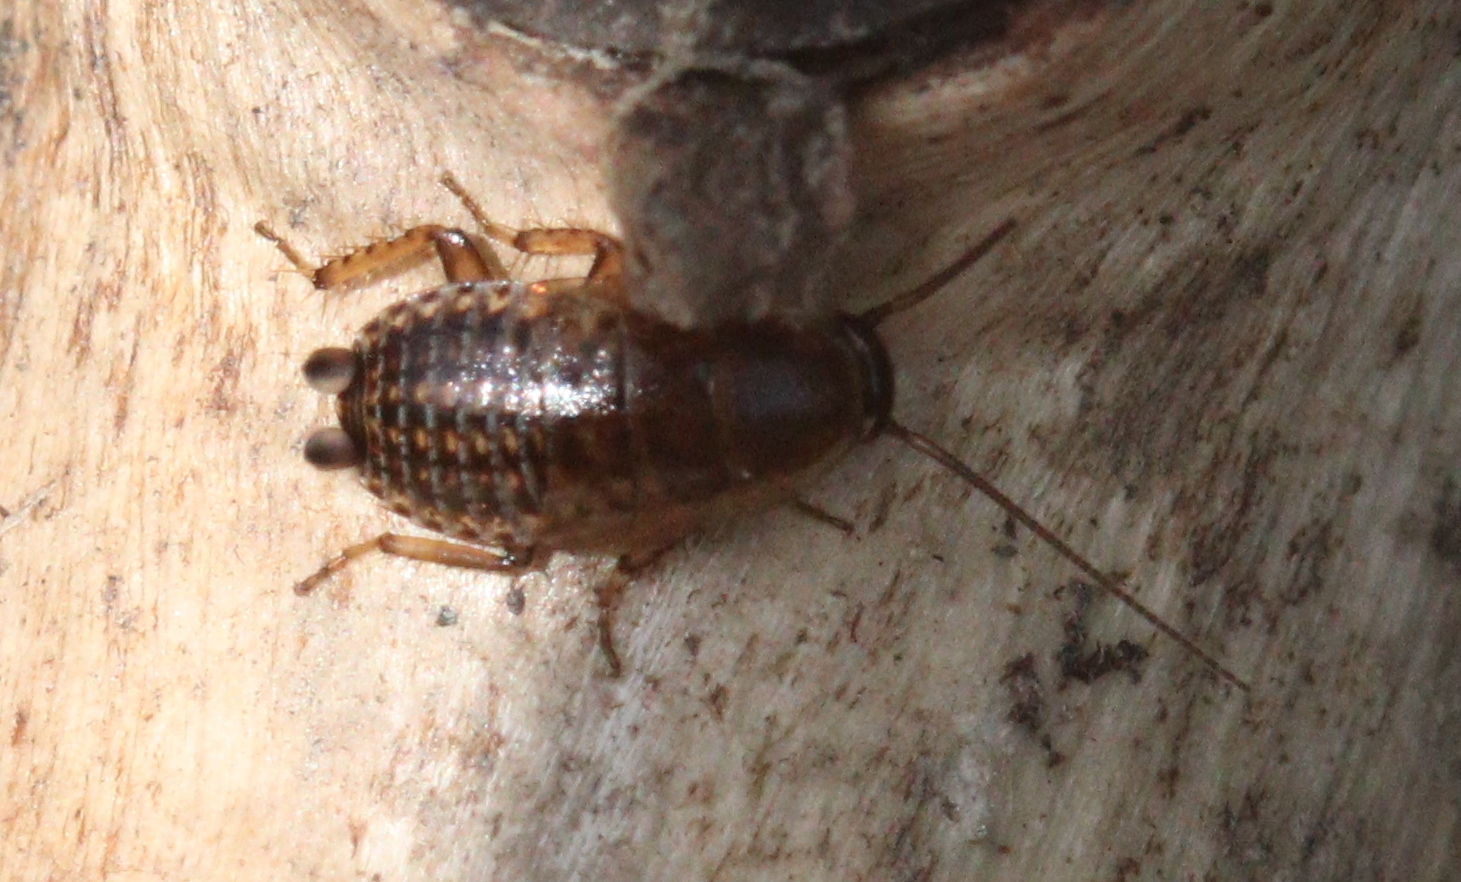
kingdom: Animalia
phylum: Arthropoda
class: Insecta
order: Blattodea
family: Ectobiidae
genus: Ectobius
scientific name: Ectobius lapponicus
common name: Dusky cockroach
